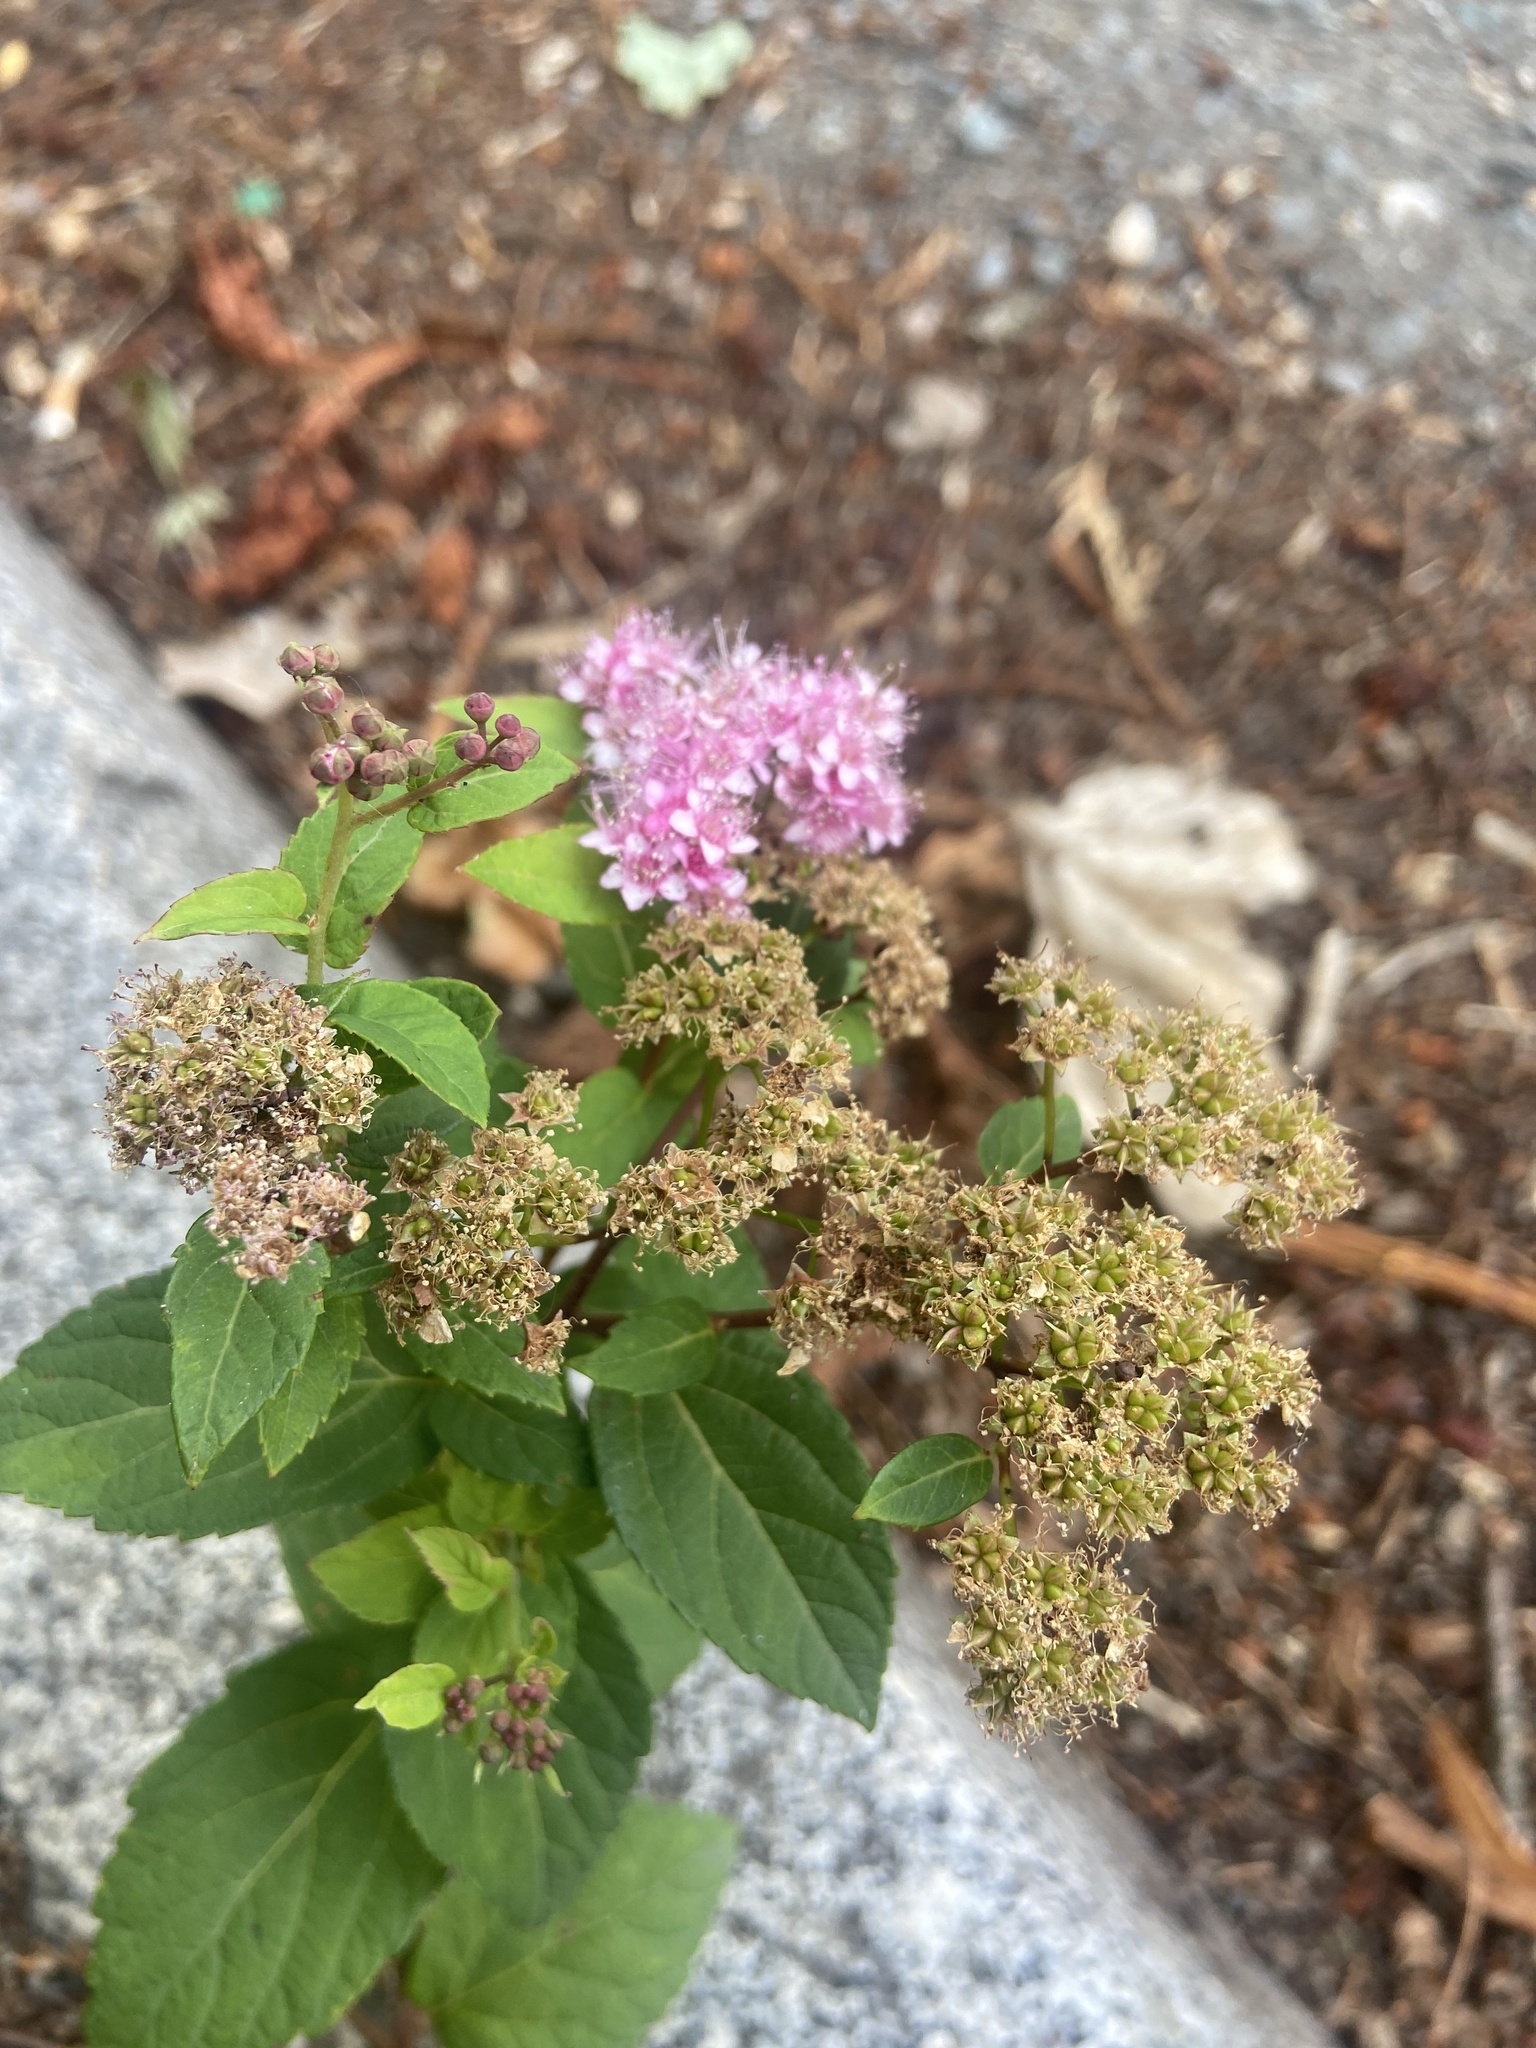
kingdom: Plantae
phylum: Tracheophyta
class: Magnoliopsida
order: Rosales
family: Rosaceae
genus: Spiraea
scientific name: Spiraea japonica
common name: Japanese spiraea
